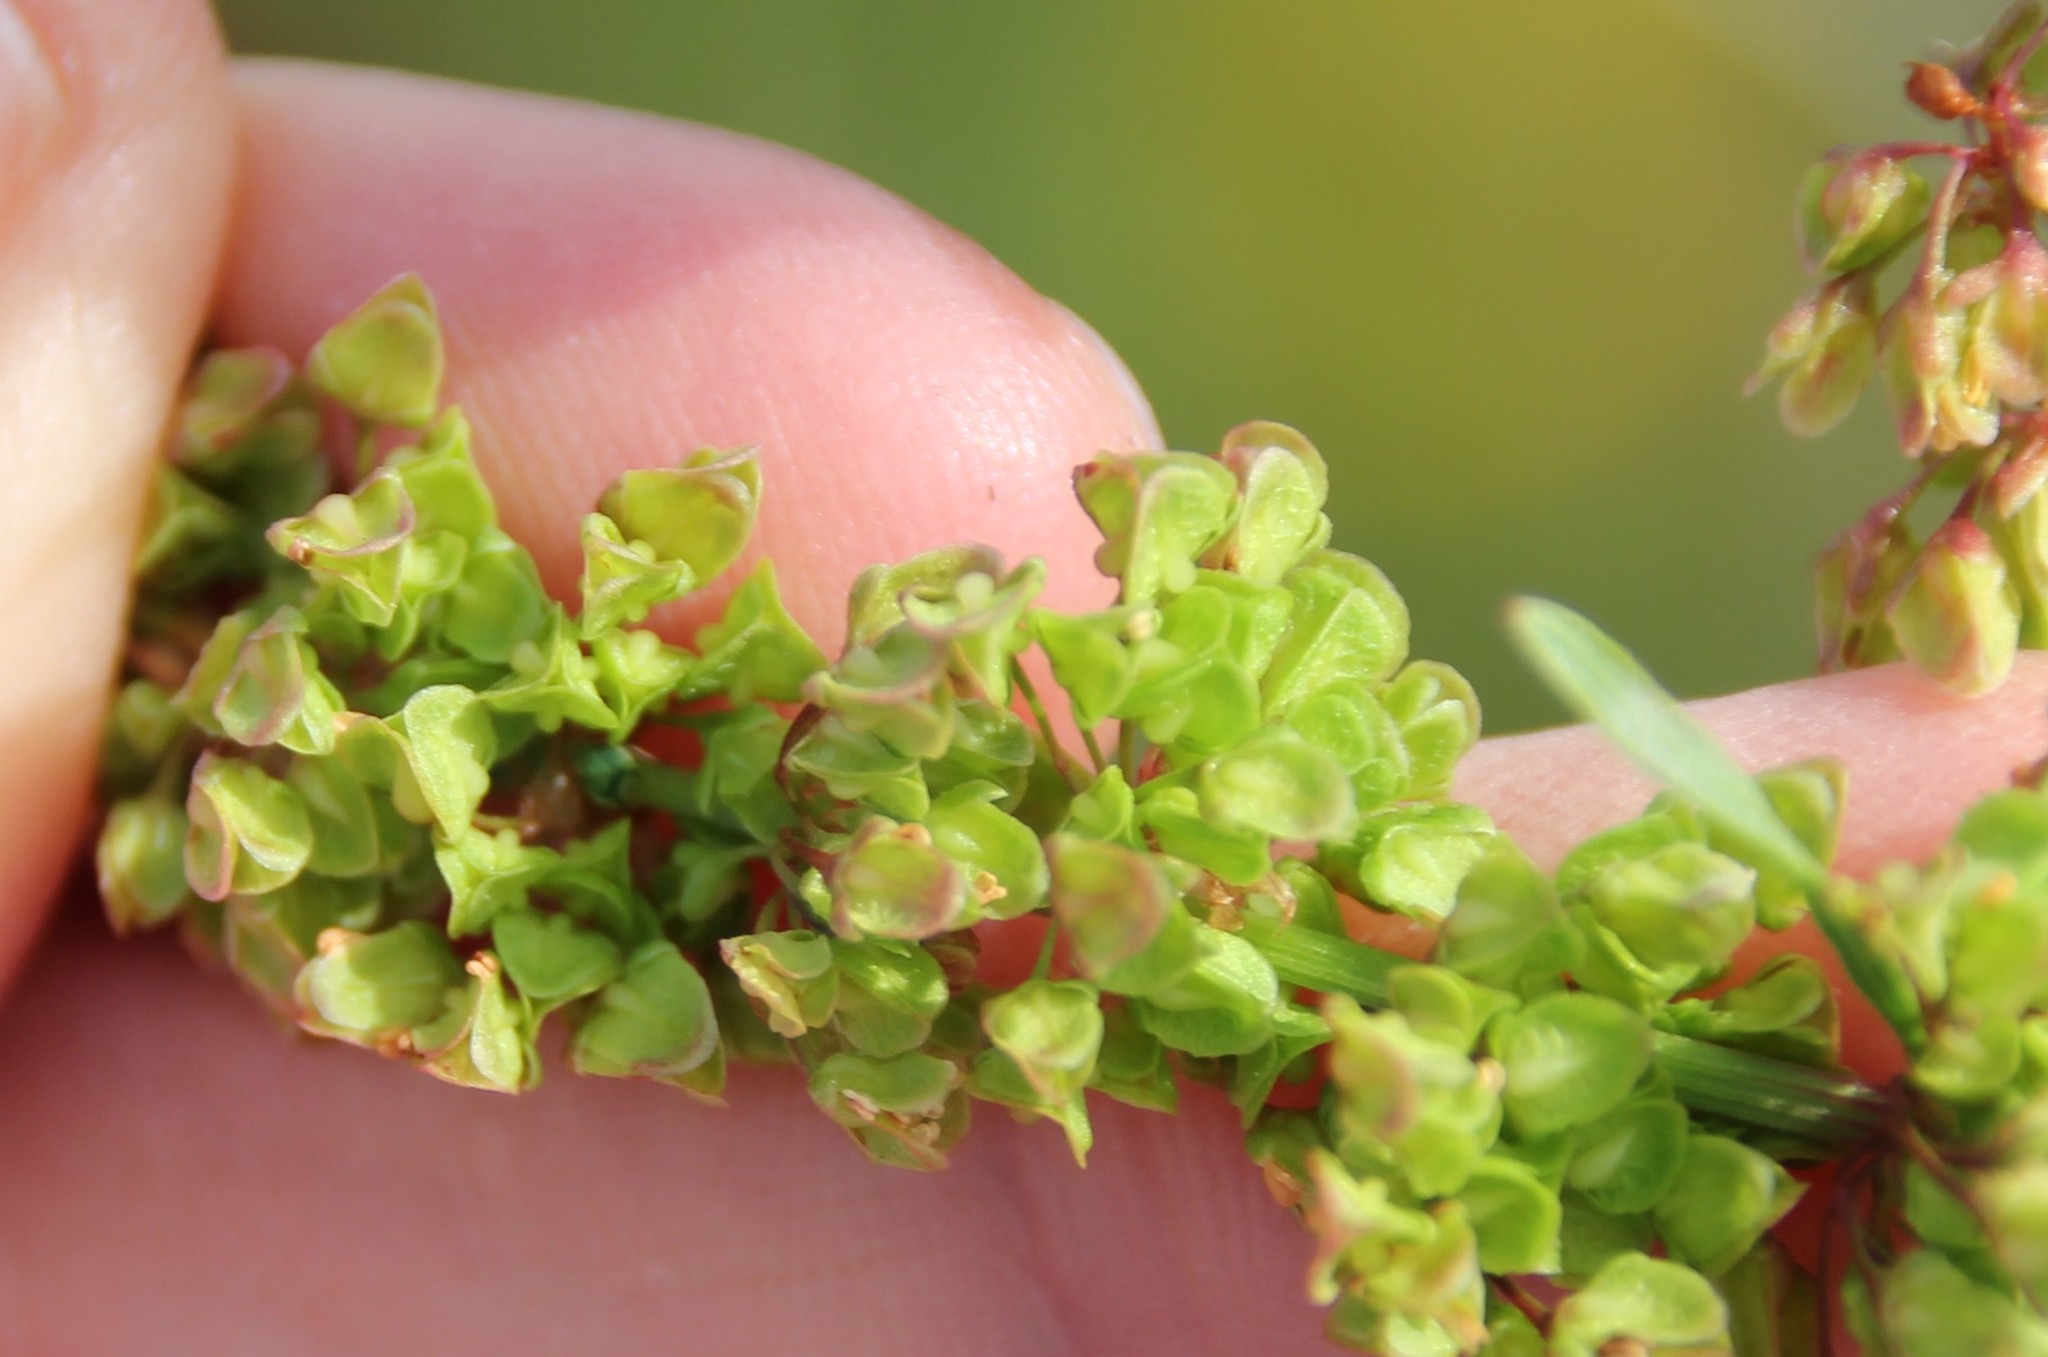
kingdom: Plantae
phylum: Tracheophyta
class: Magnoliopsida
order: Caryophyllales
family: Polygonaceae
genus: Rumex
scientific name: Rumex crispus
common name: Curled dock
